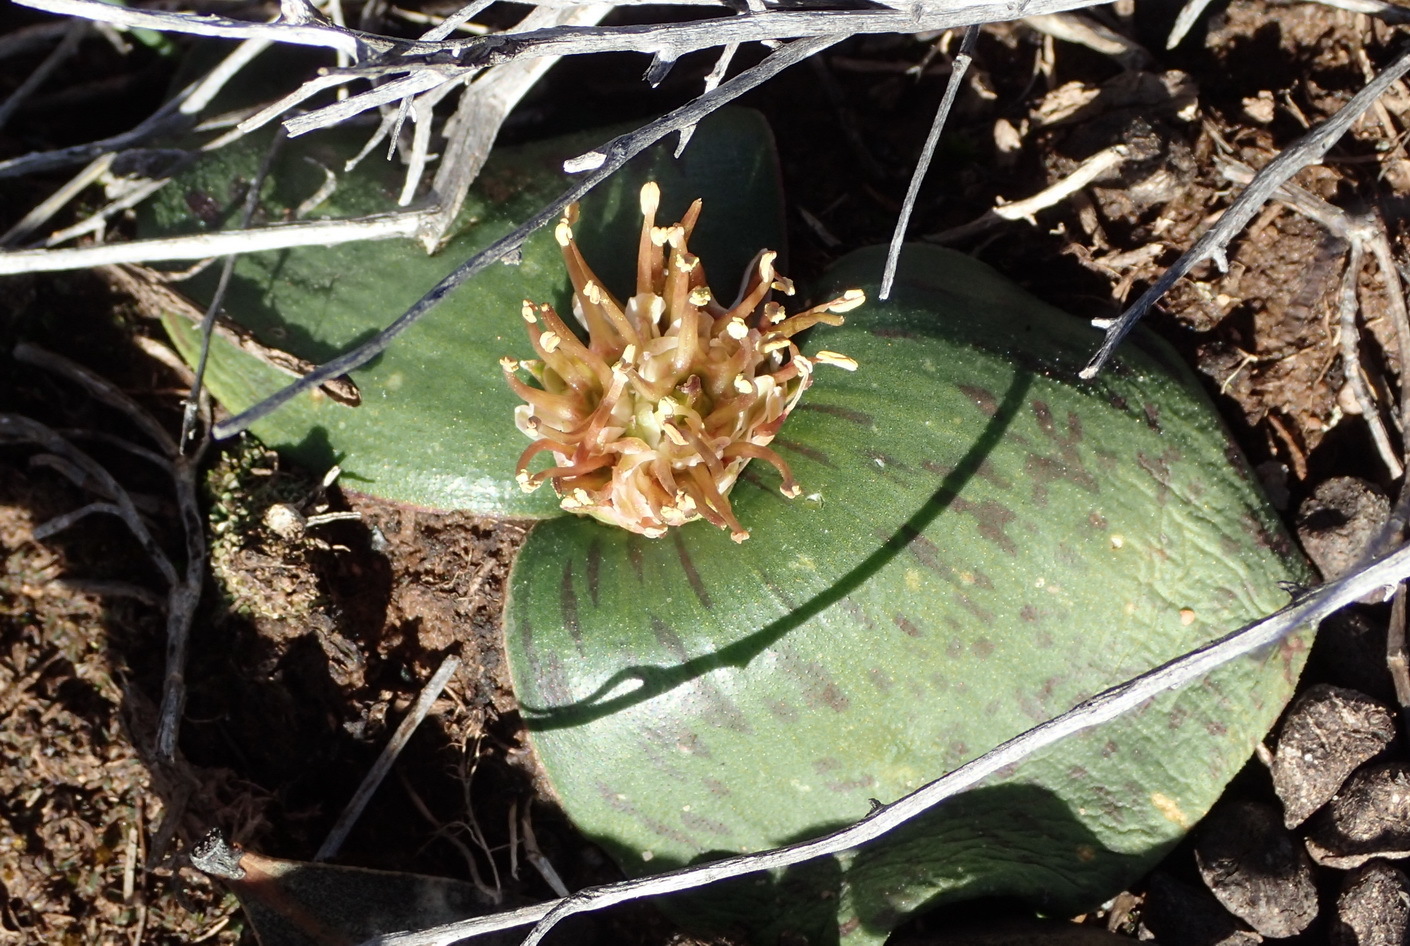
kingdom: Plantae
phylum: Tracheophyta
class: Liliopsida
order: Asparagales
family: Asparagaceae
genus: Massonia
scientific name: Massonia depressa
